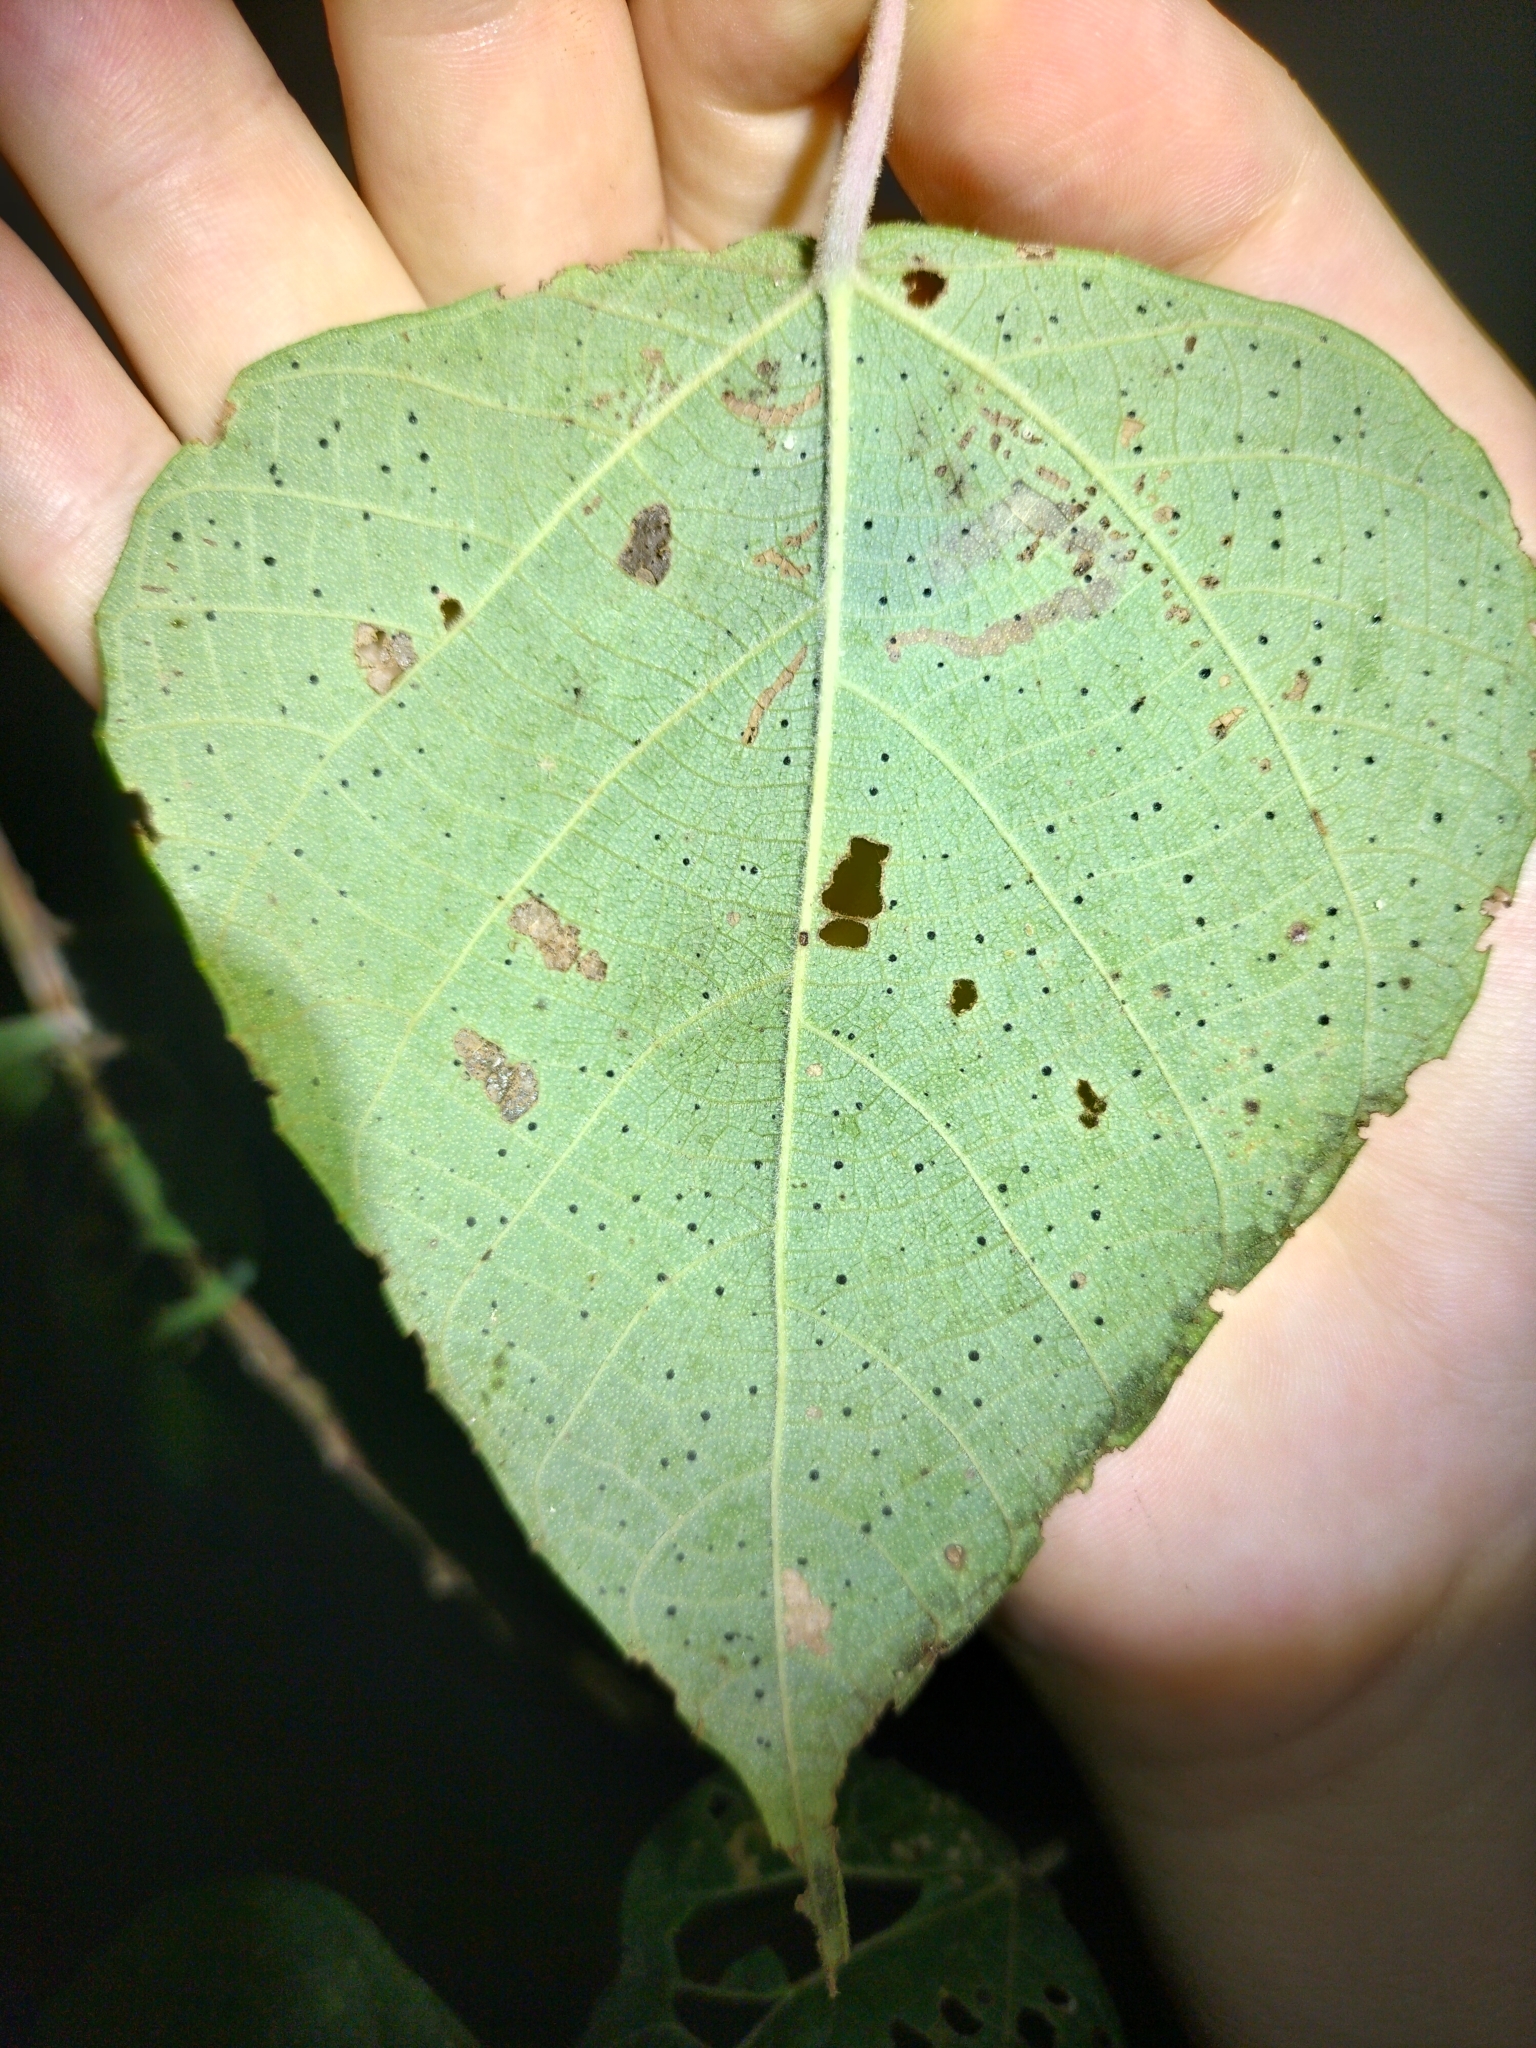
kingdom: Plantae
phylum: Tracheophyta
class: Magnoliopsida
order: Malpighiales
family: Euphorbiaceae
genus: Macaranga
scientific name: Macaranga involucrata
